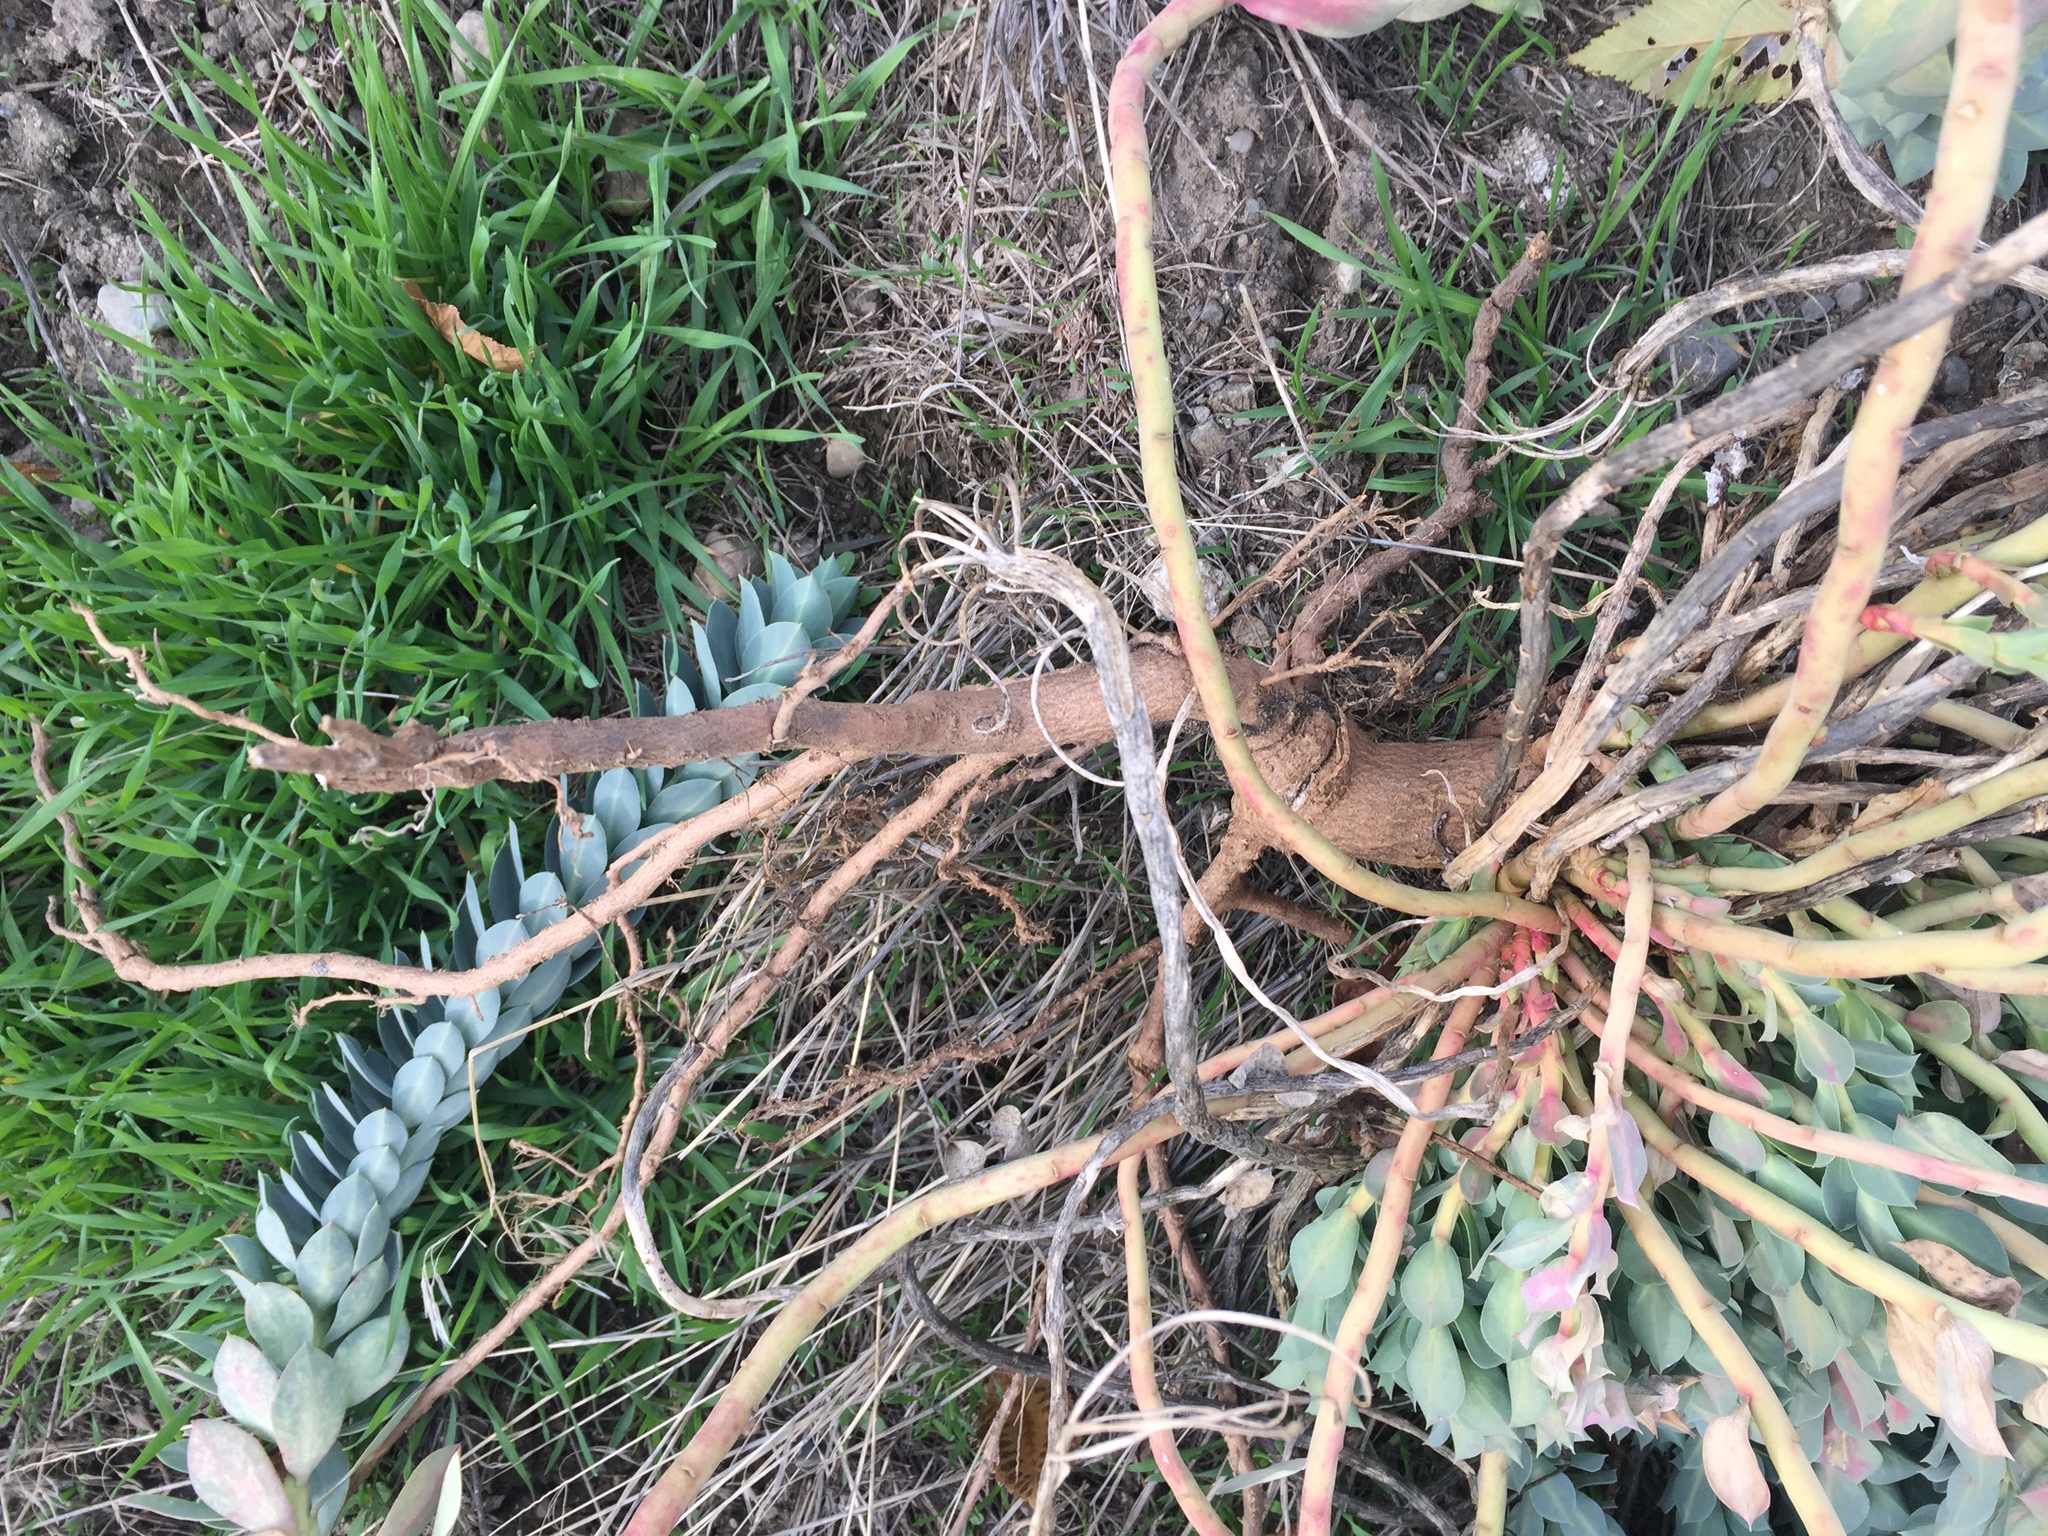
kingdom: Plantae
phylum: Tracheophyta
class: Magnoliopsida
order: Malpighiales
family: Euphorbiaceae
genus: Euphorbia
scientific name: Euphorbia myrsinites
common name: Myrtle spurge
